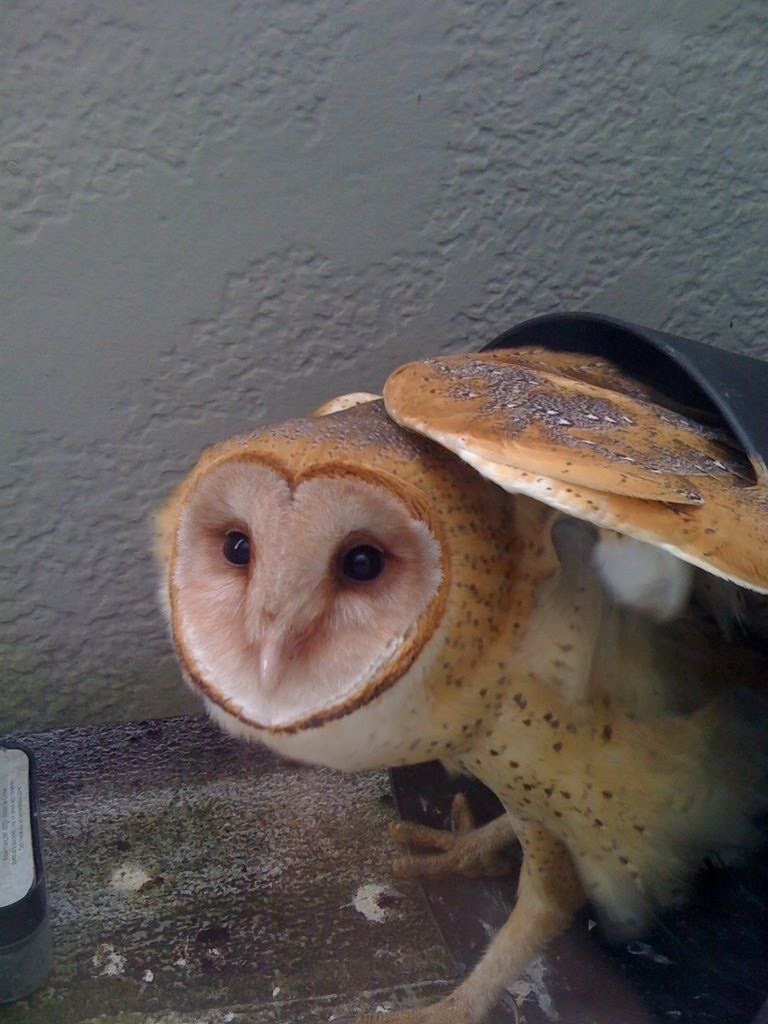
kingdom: Animalia
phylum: Chordata
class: Aves
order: Strigiformes
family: Tytonidae
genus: Tyto
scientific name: Tyto alba
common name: Barn owl
